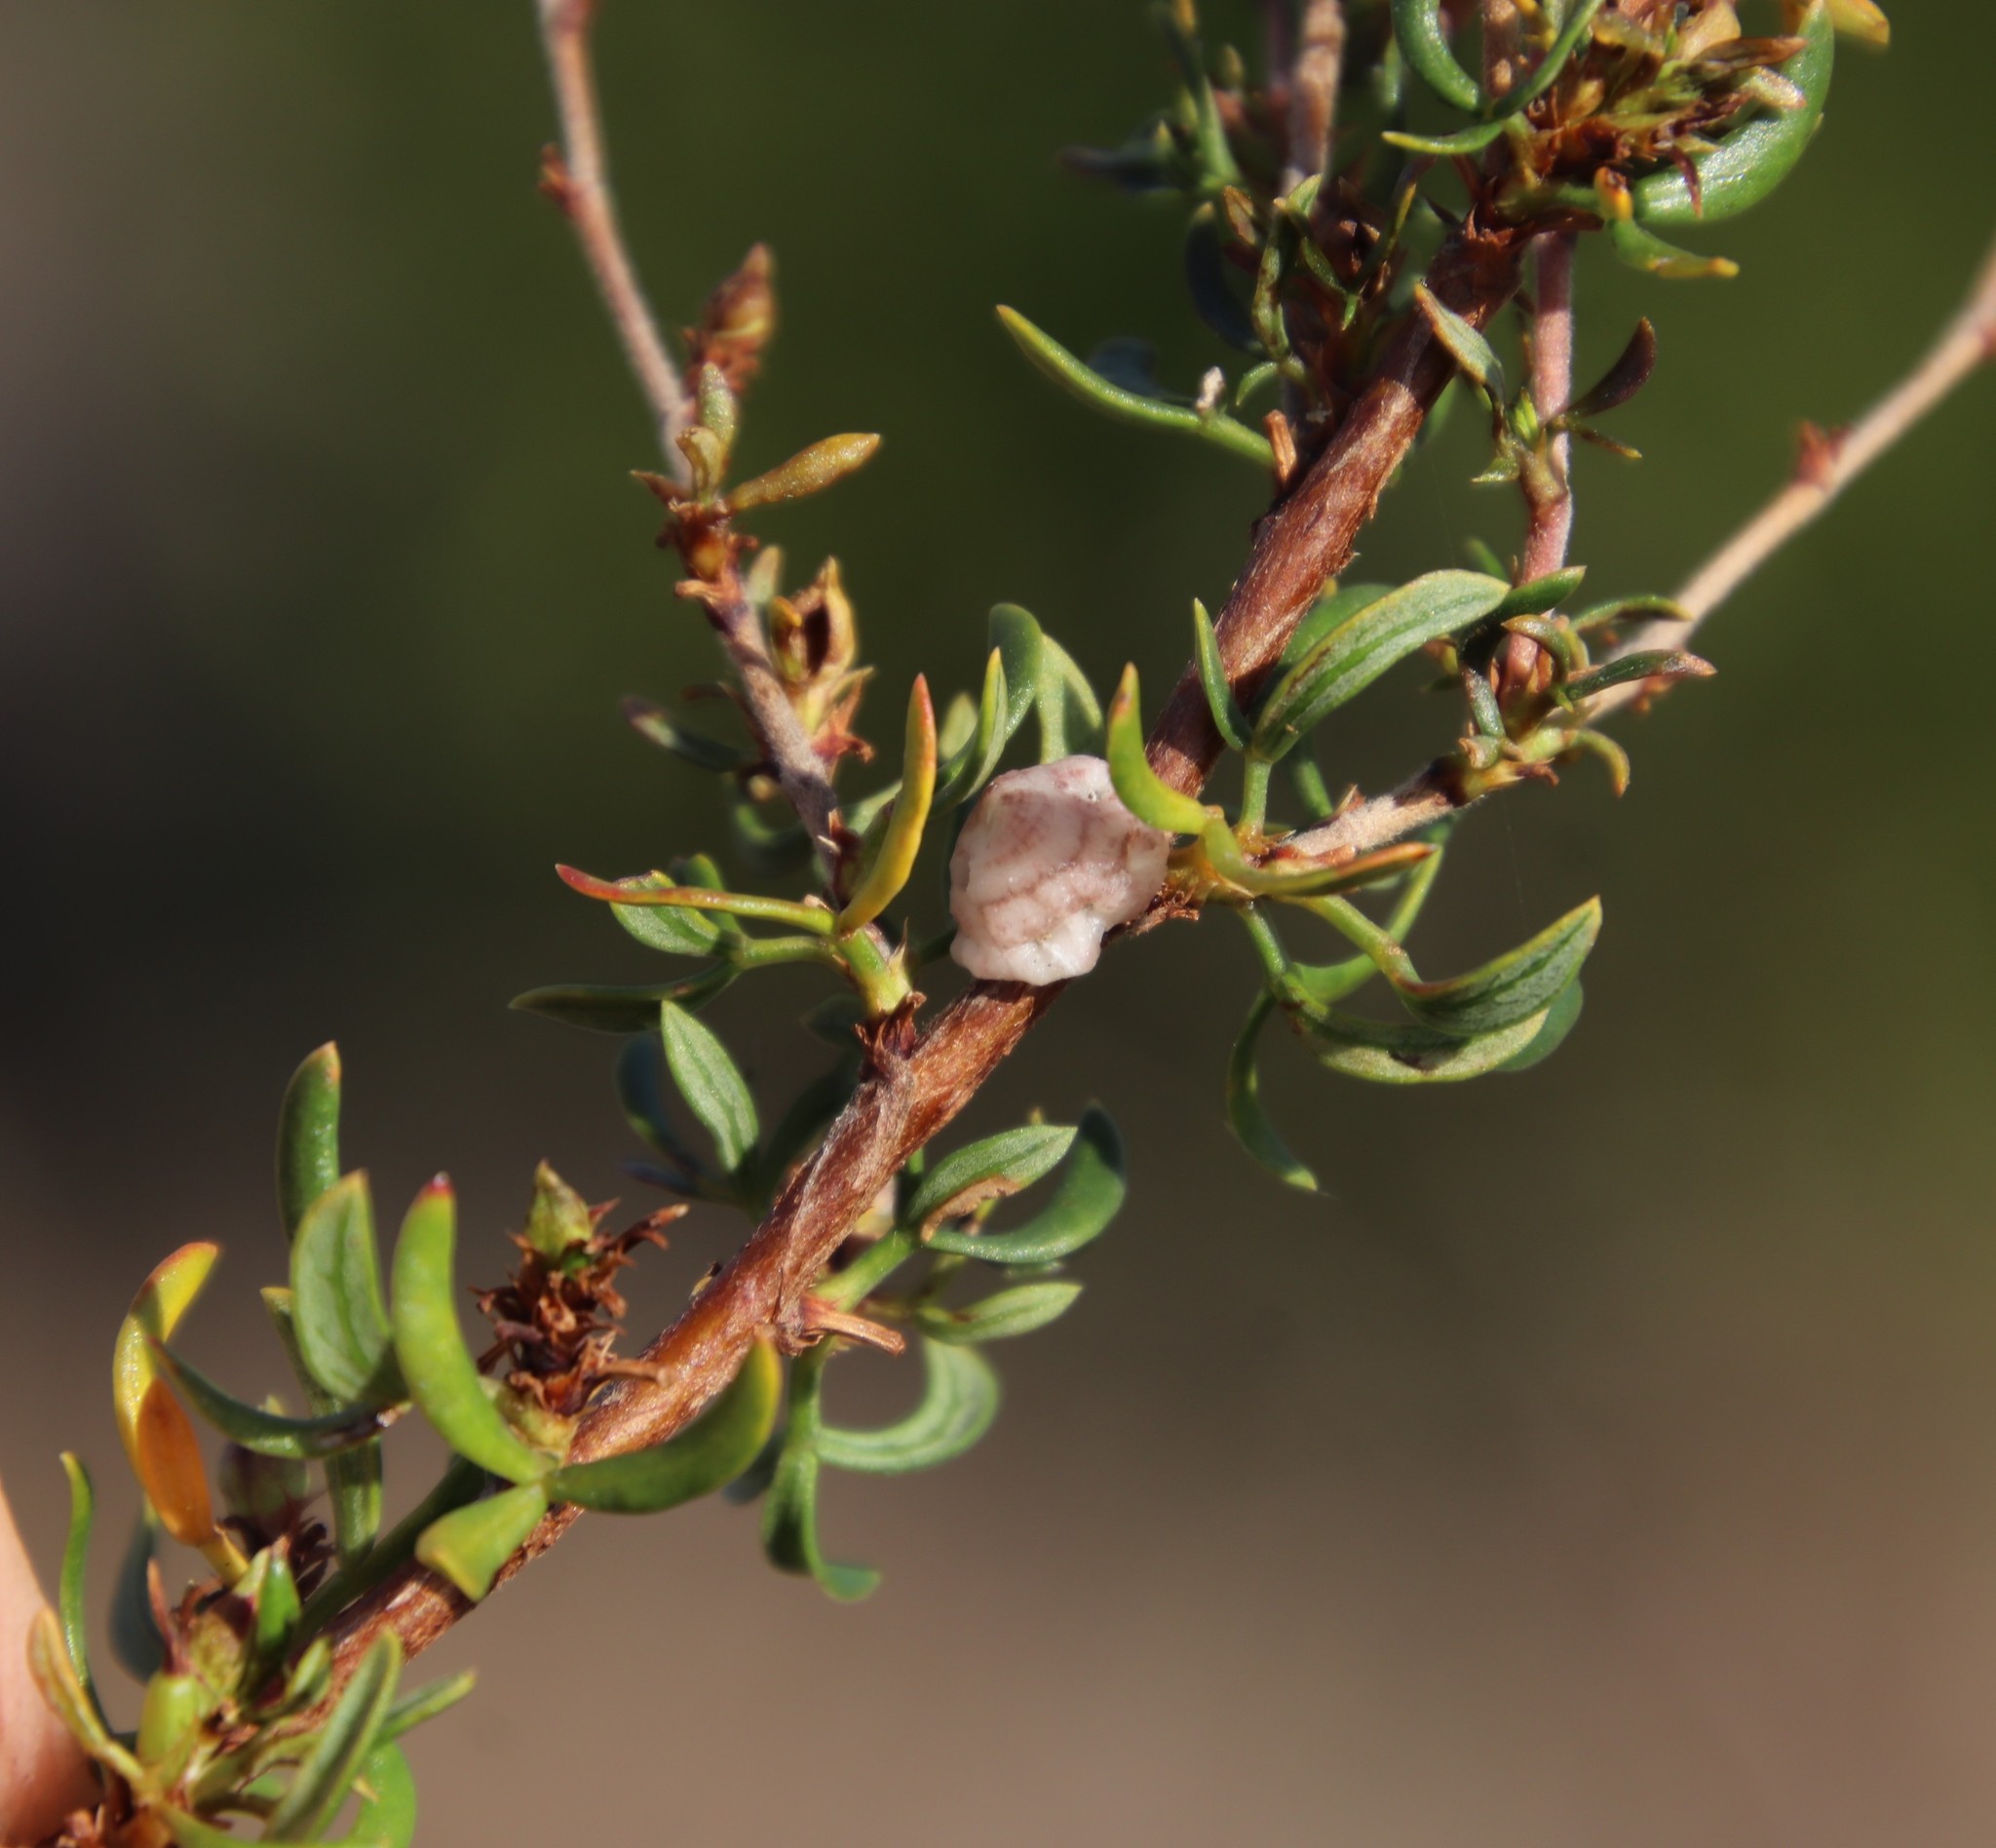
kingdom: Plantae
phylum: Tracheophyta
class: Magnoliopsida
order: Rosales
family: Rosaceae
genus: Cliffortia
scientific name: Cliffortia falcata
